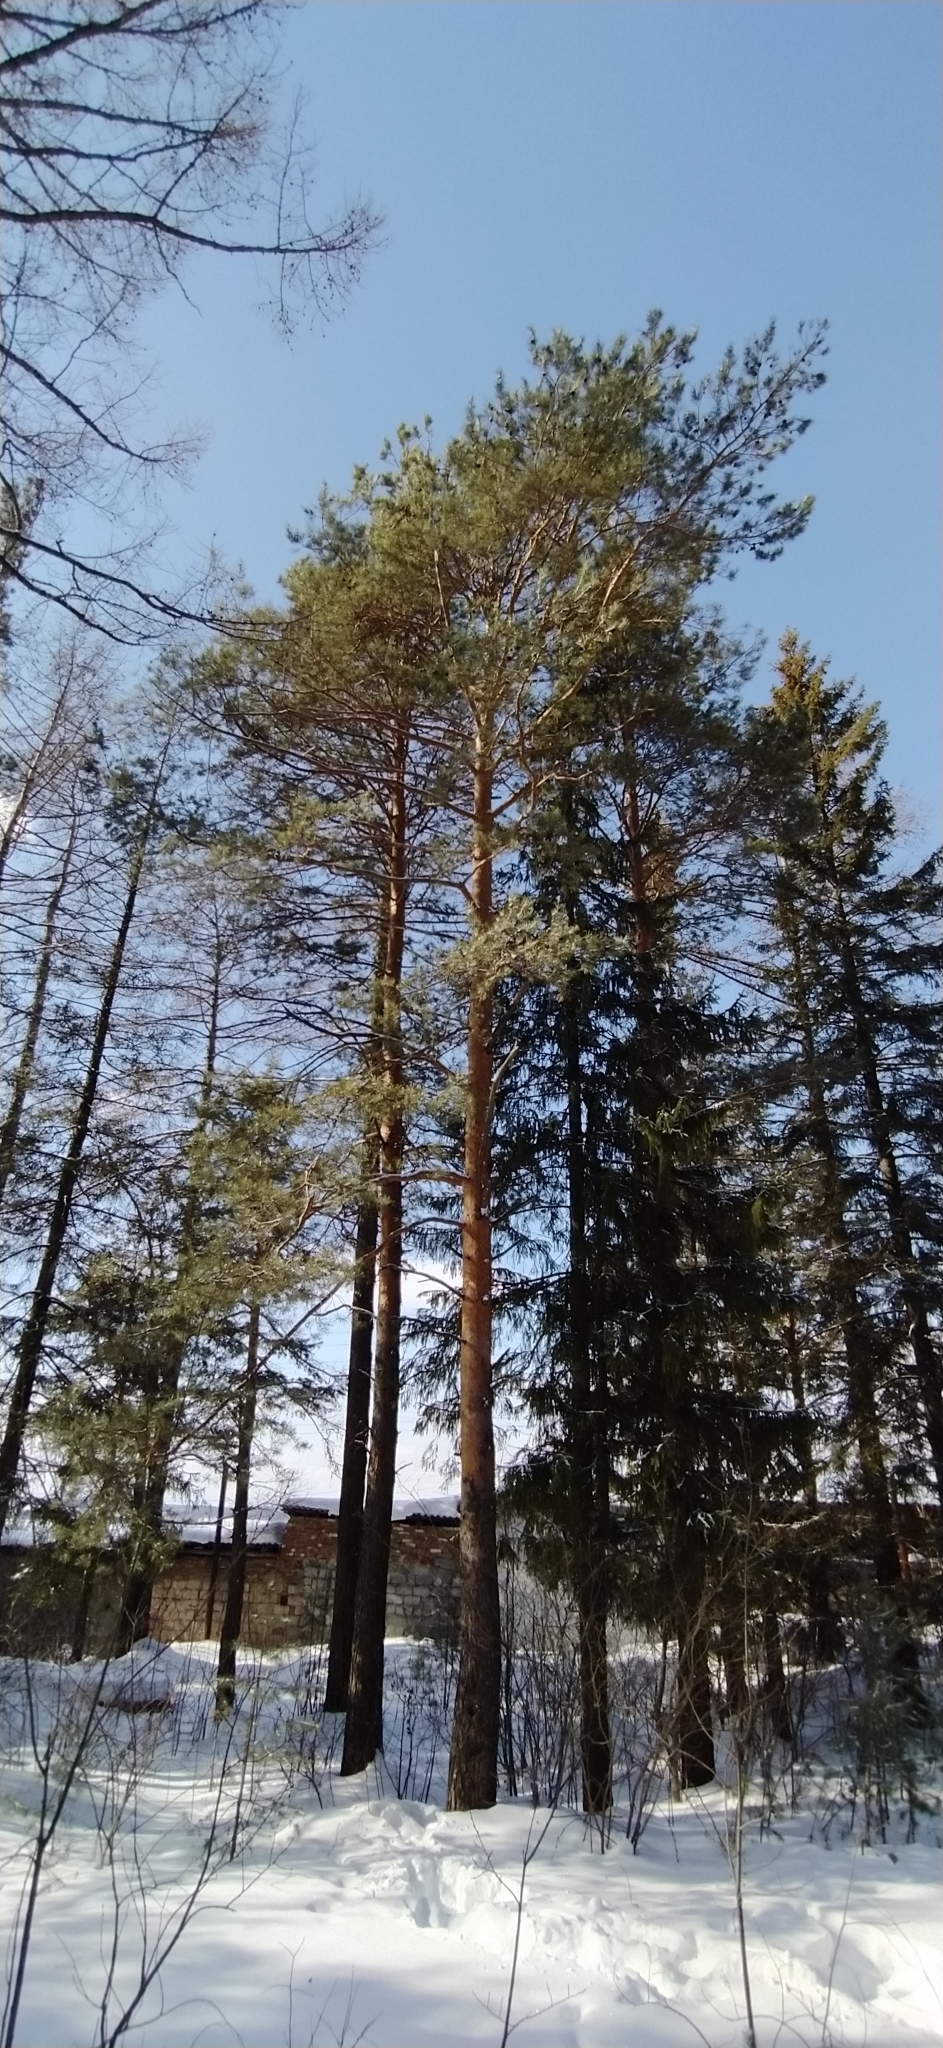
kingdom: Plantae
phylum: Tracheophyta
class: Pinopsida
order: Pinales
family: Pinaceae
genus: Pinus
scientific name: Pinus sylvestris
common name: Scots pine
